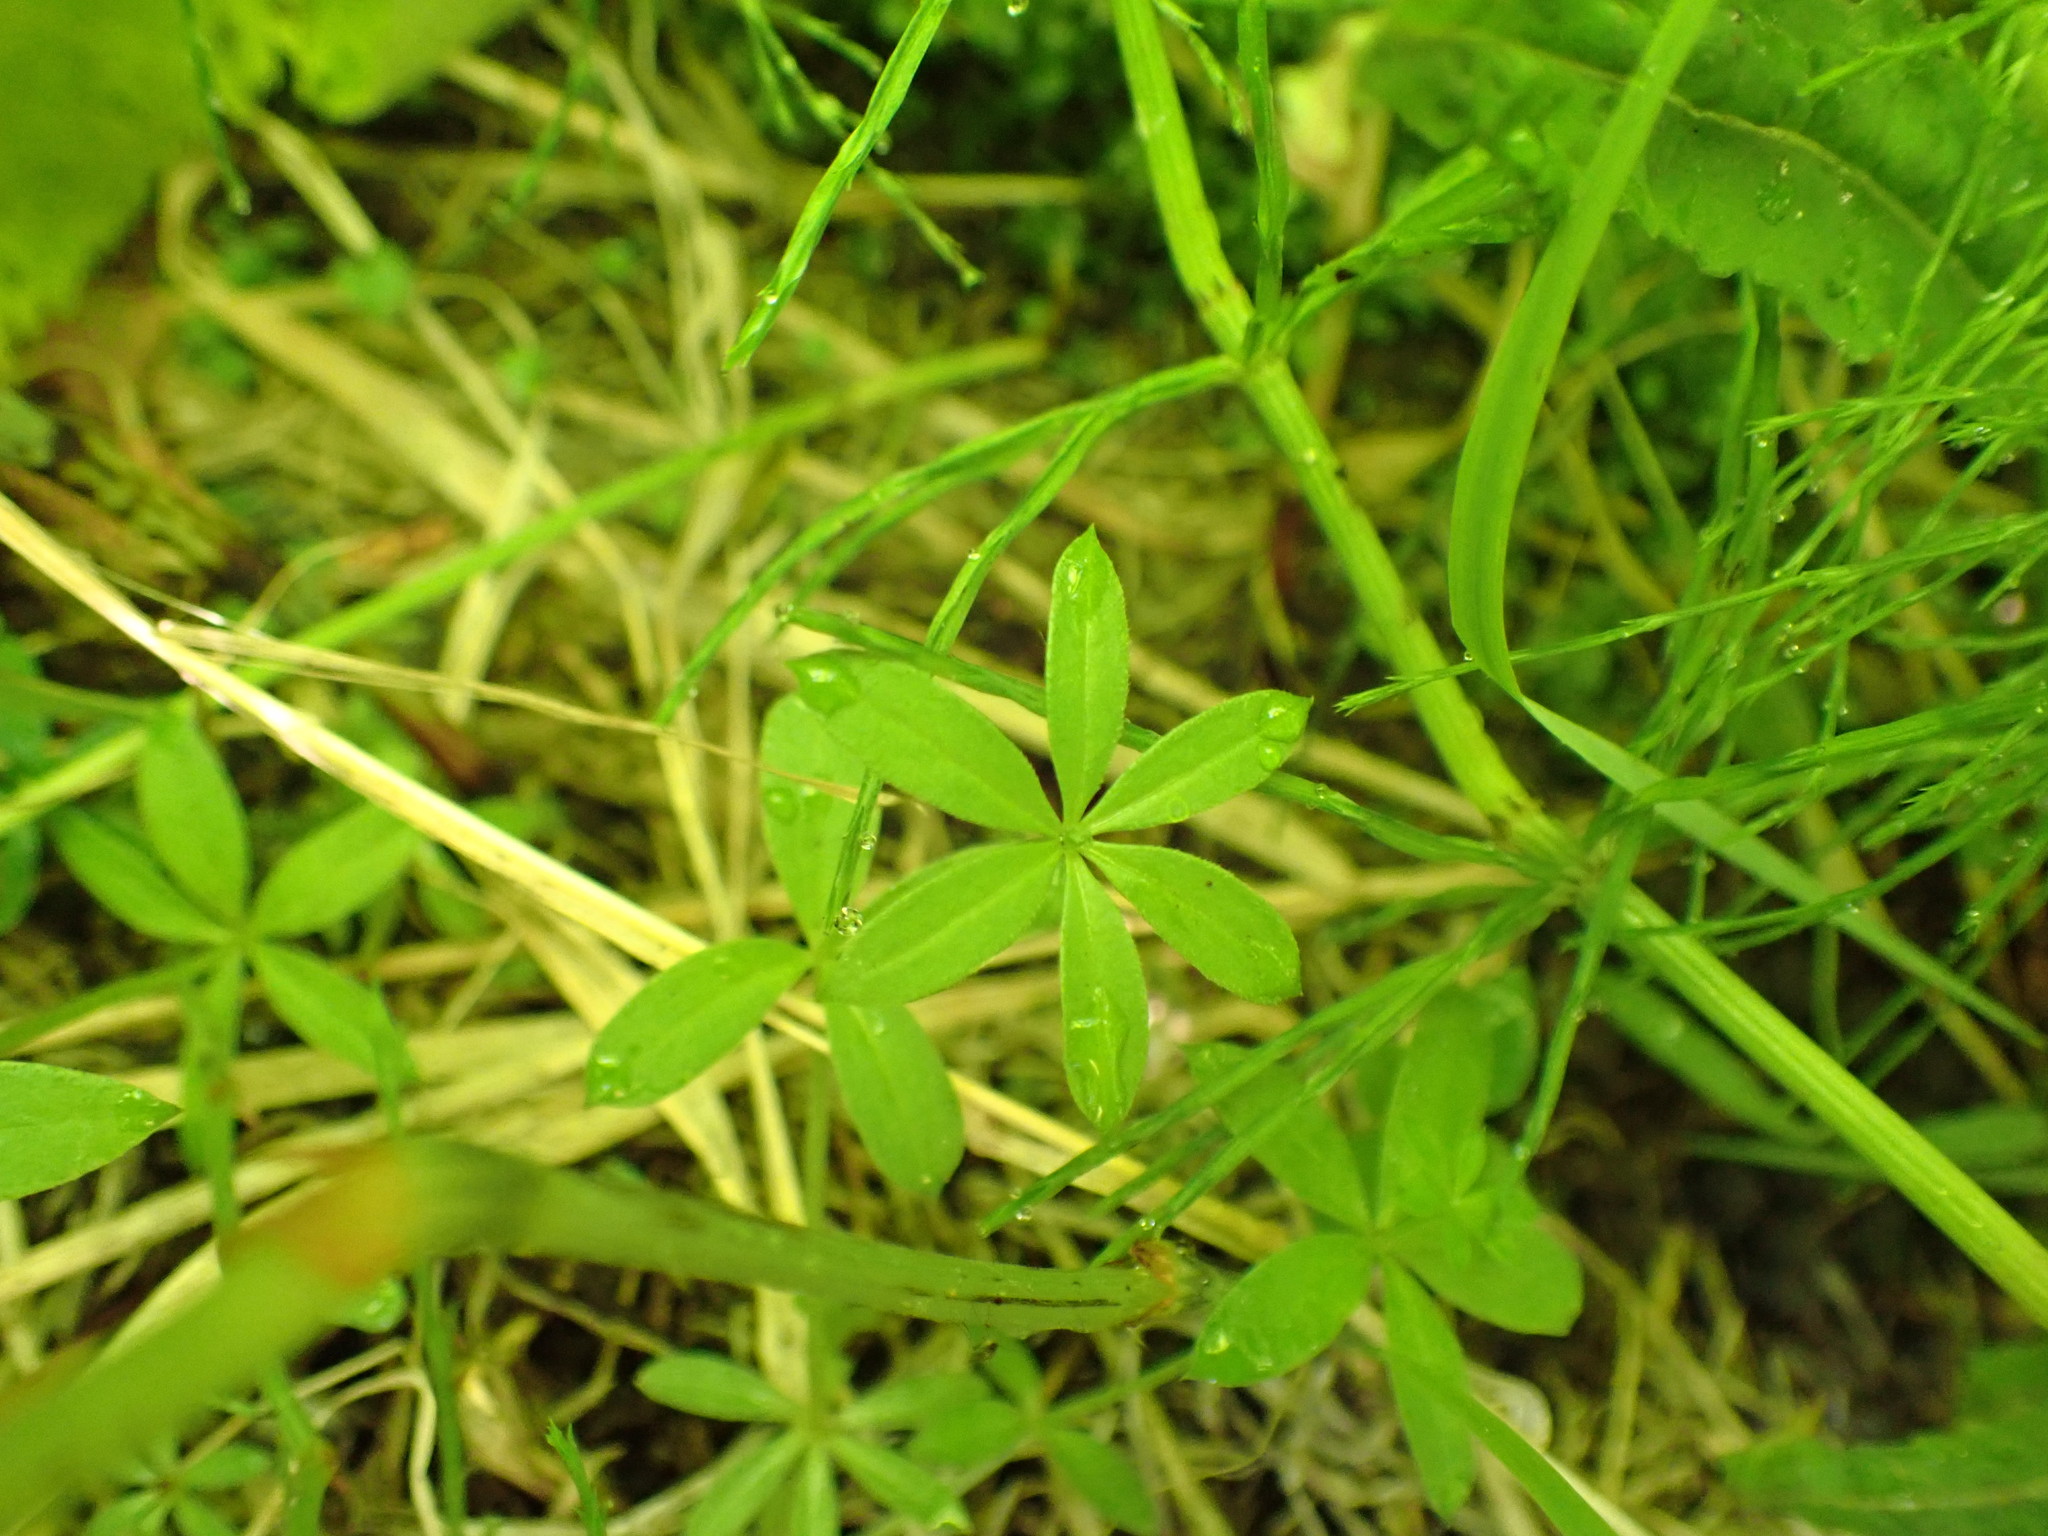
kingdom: Plantae
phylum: Tracheophyta
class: Magnoliopsida
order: Gentianales
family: Rubiaceae
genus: Galium
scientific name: Galium triflorum
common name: Fragrant bedstraw
